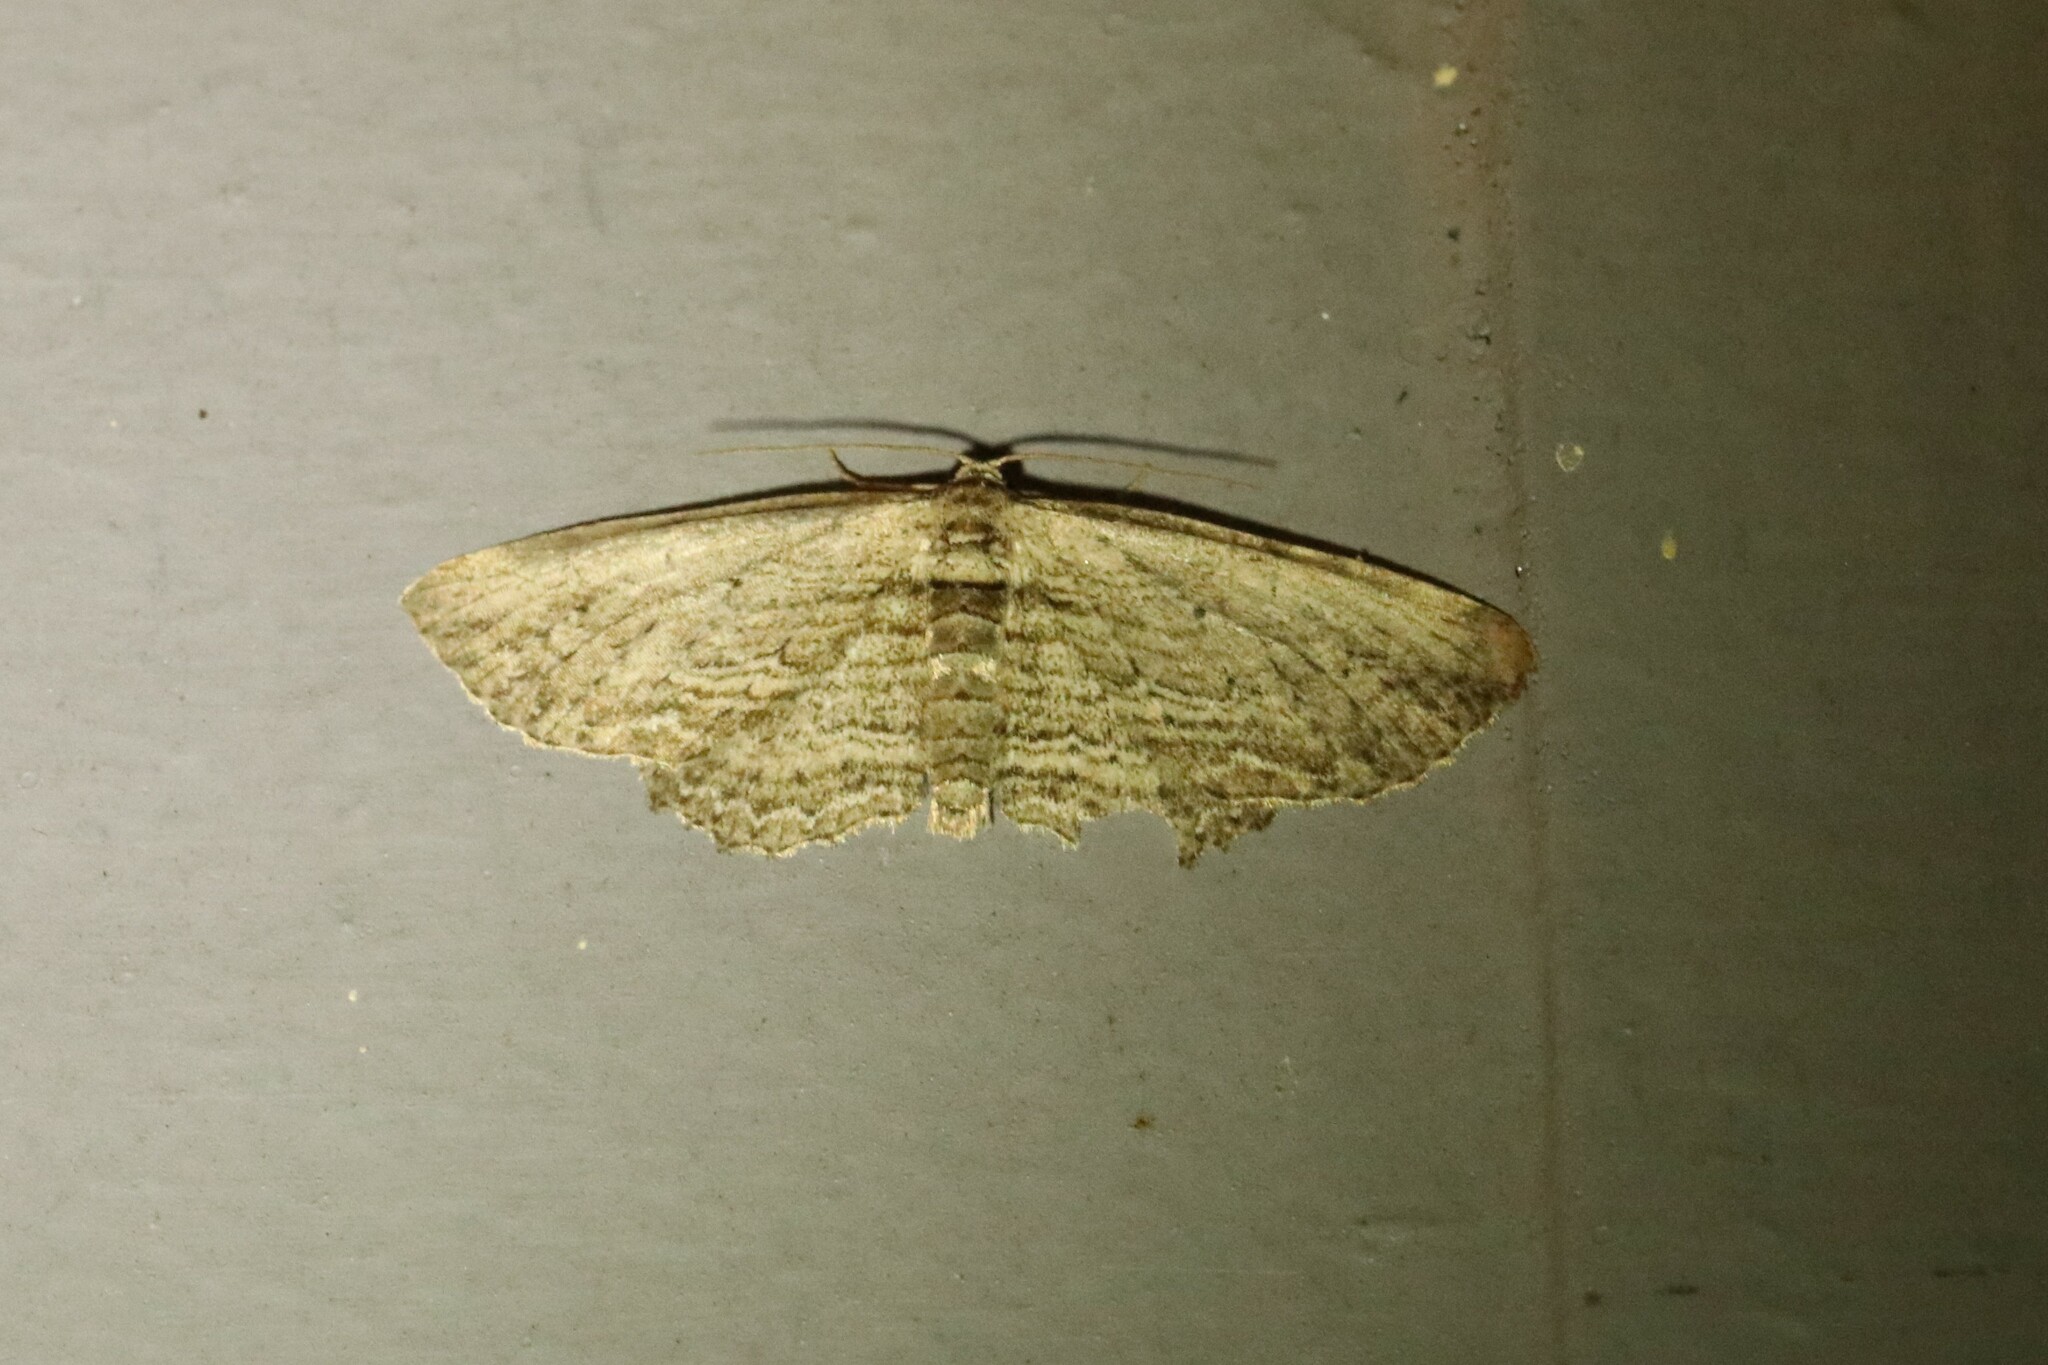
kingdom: Animalia
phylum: Arthropoda
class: Insecta
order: Lepidoptera
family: Geometridae
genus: Horisme
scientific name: Horisme intestinata
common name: Brown bark carpet
